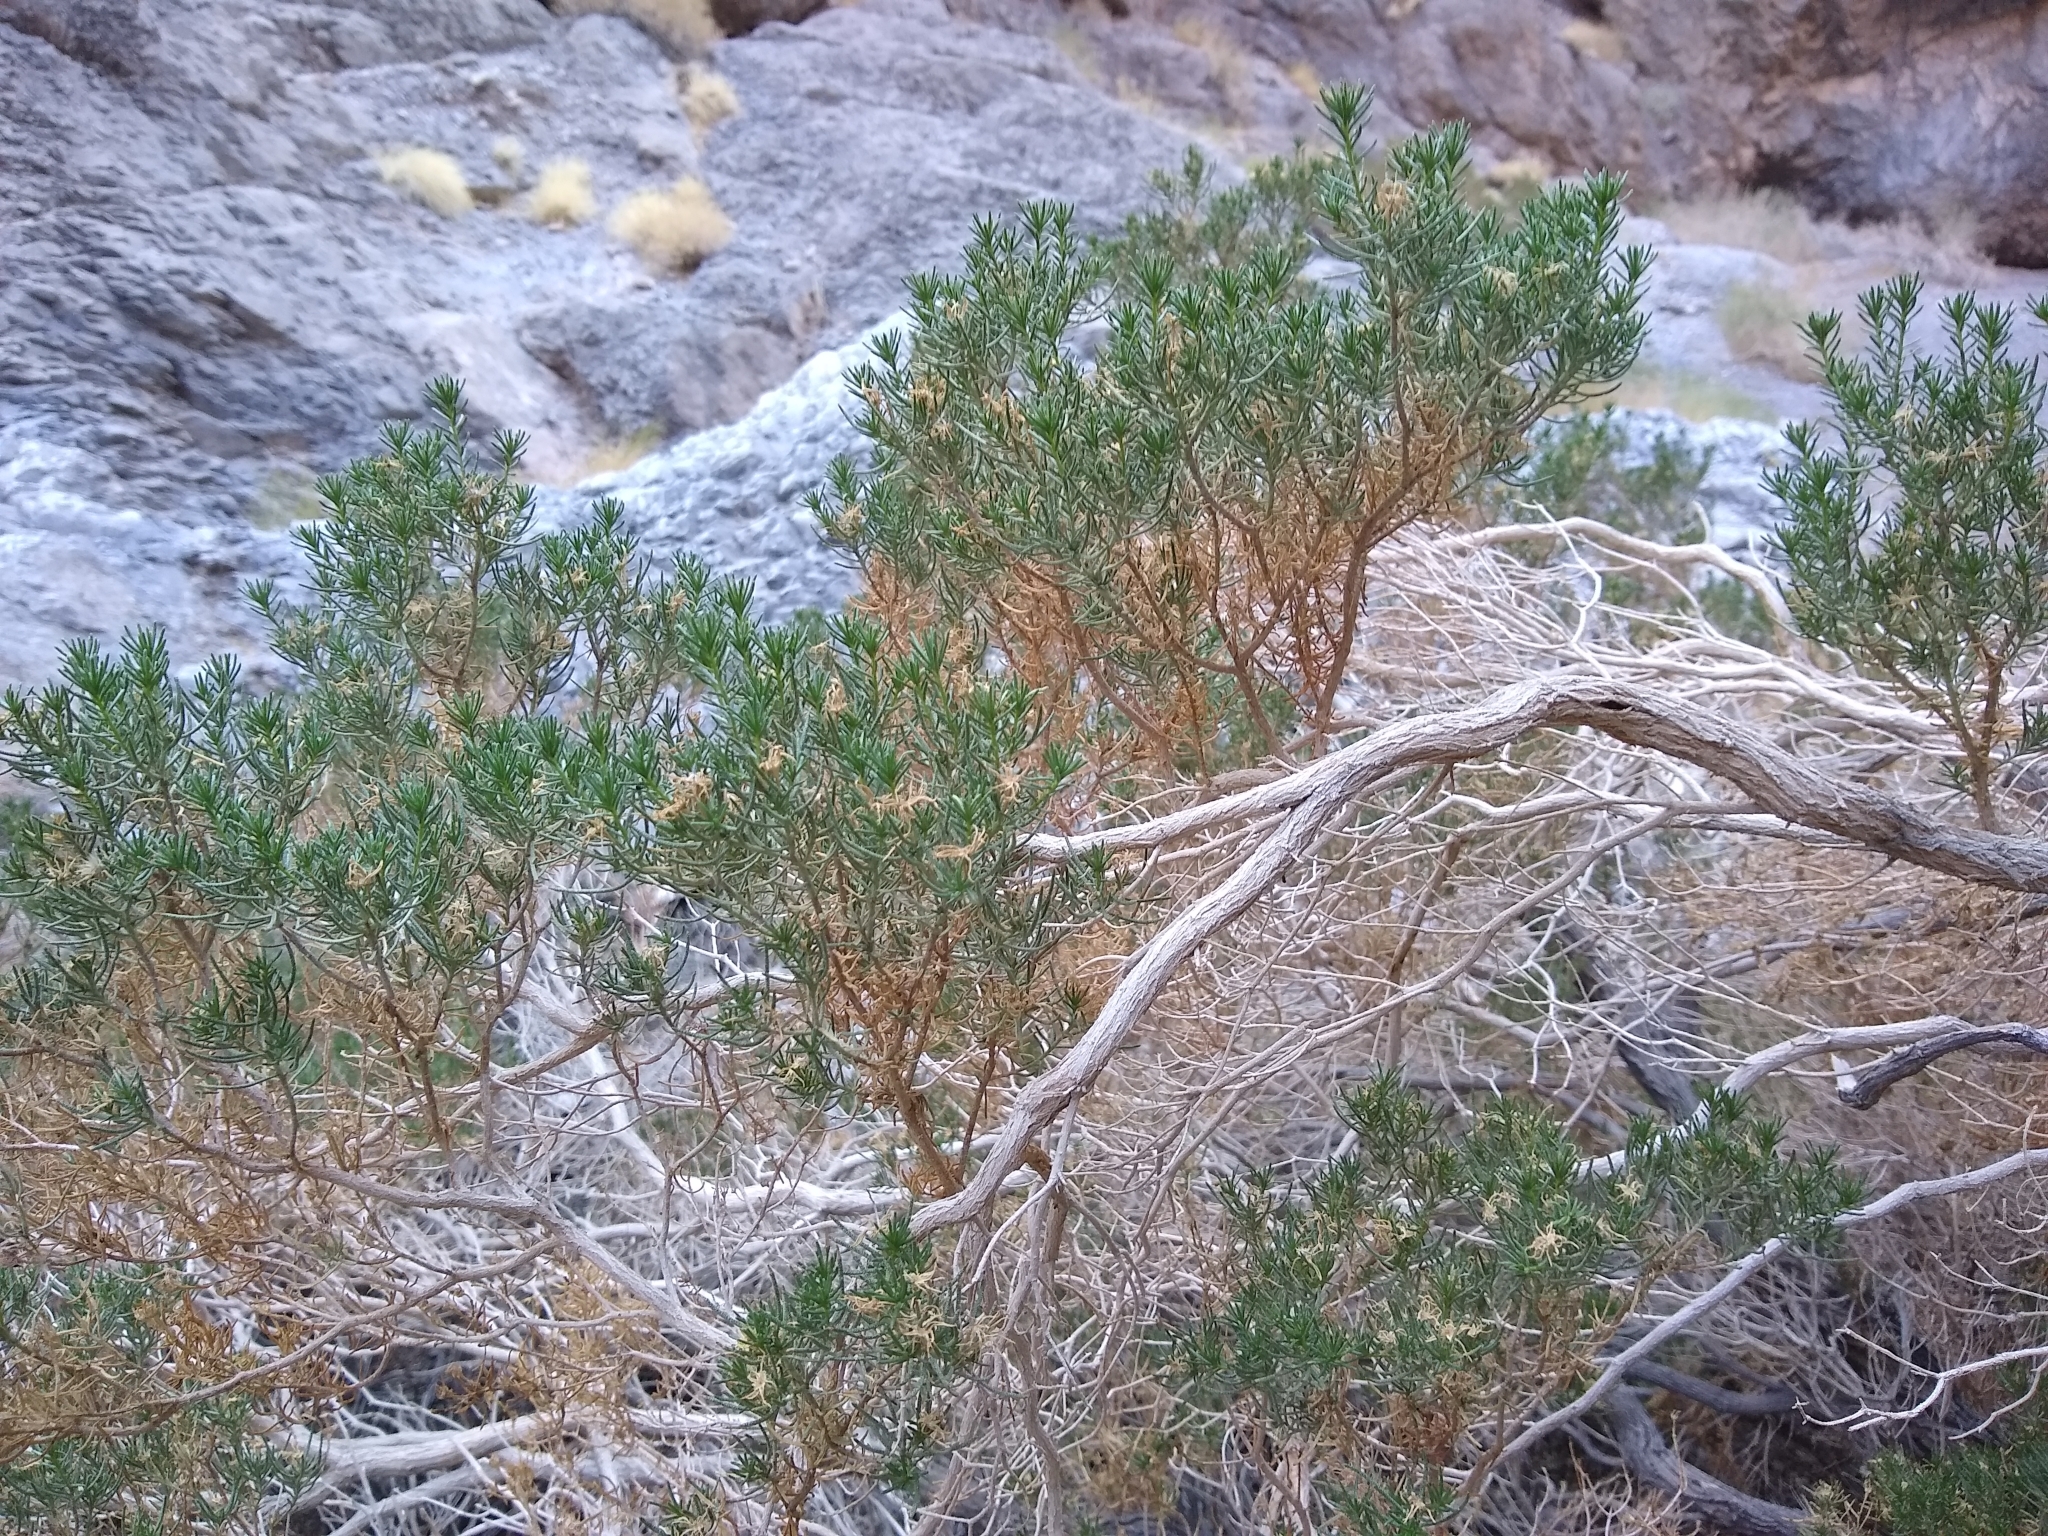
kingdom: Plantae
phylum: Tracheophyta
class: Magnoliopsida
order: Asterales
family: Asteraceae
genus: Peucephyllum
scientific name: Peucephyllum schottii
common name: Pygmy-cedar
